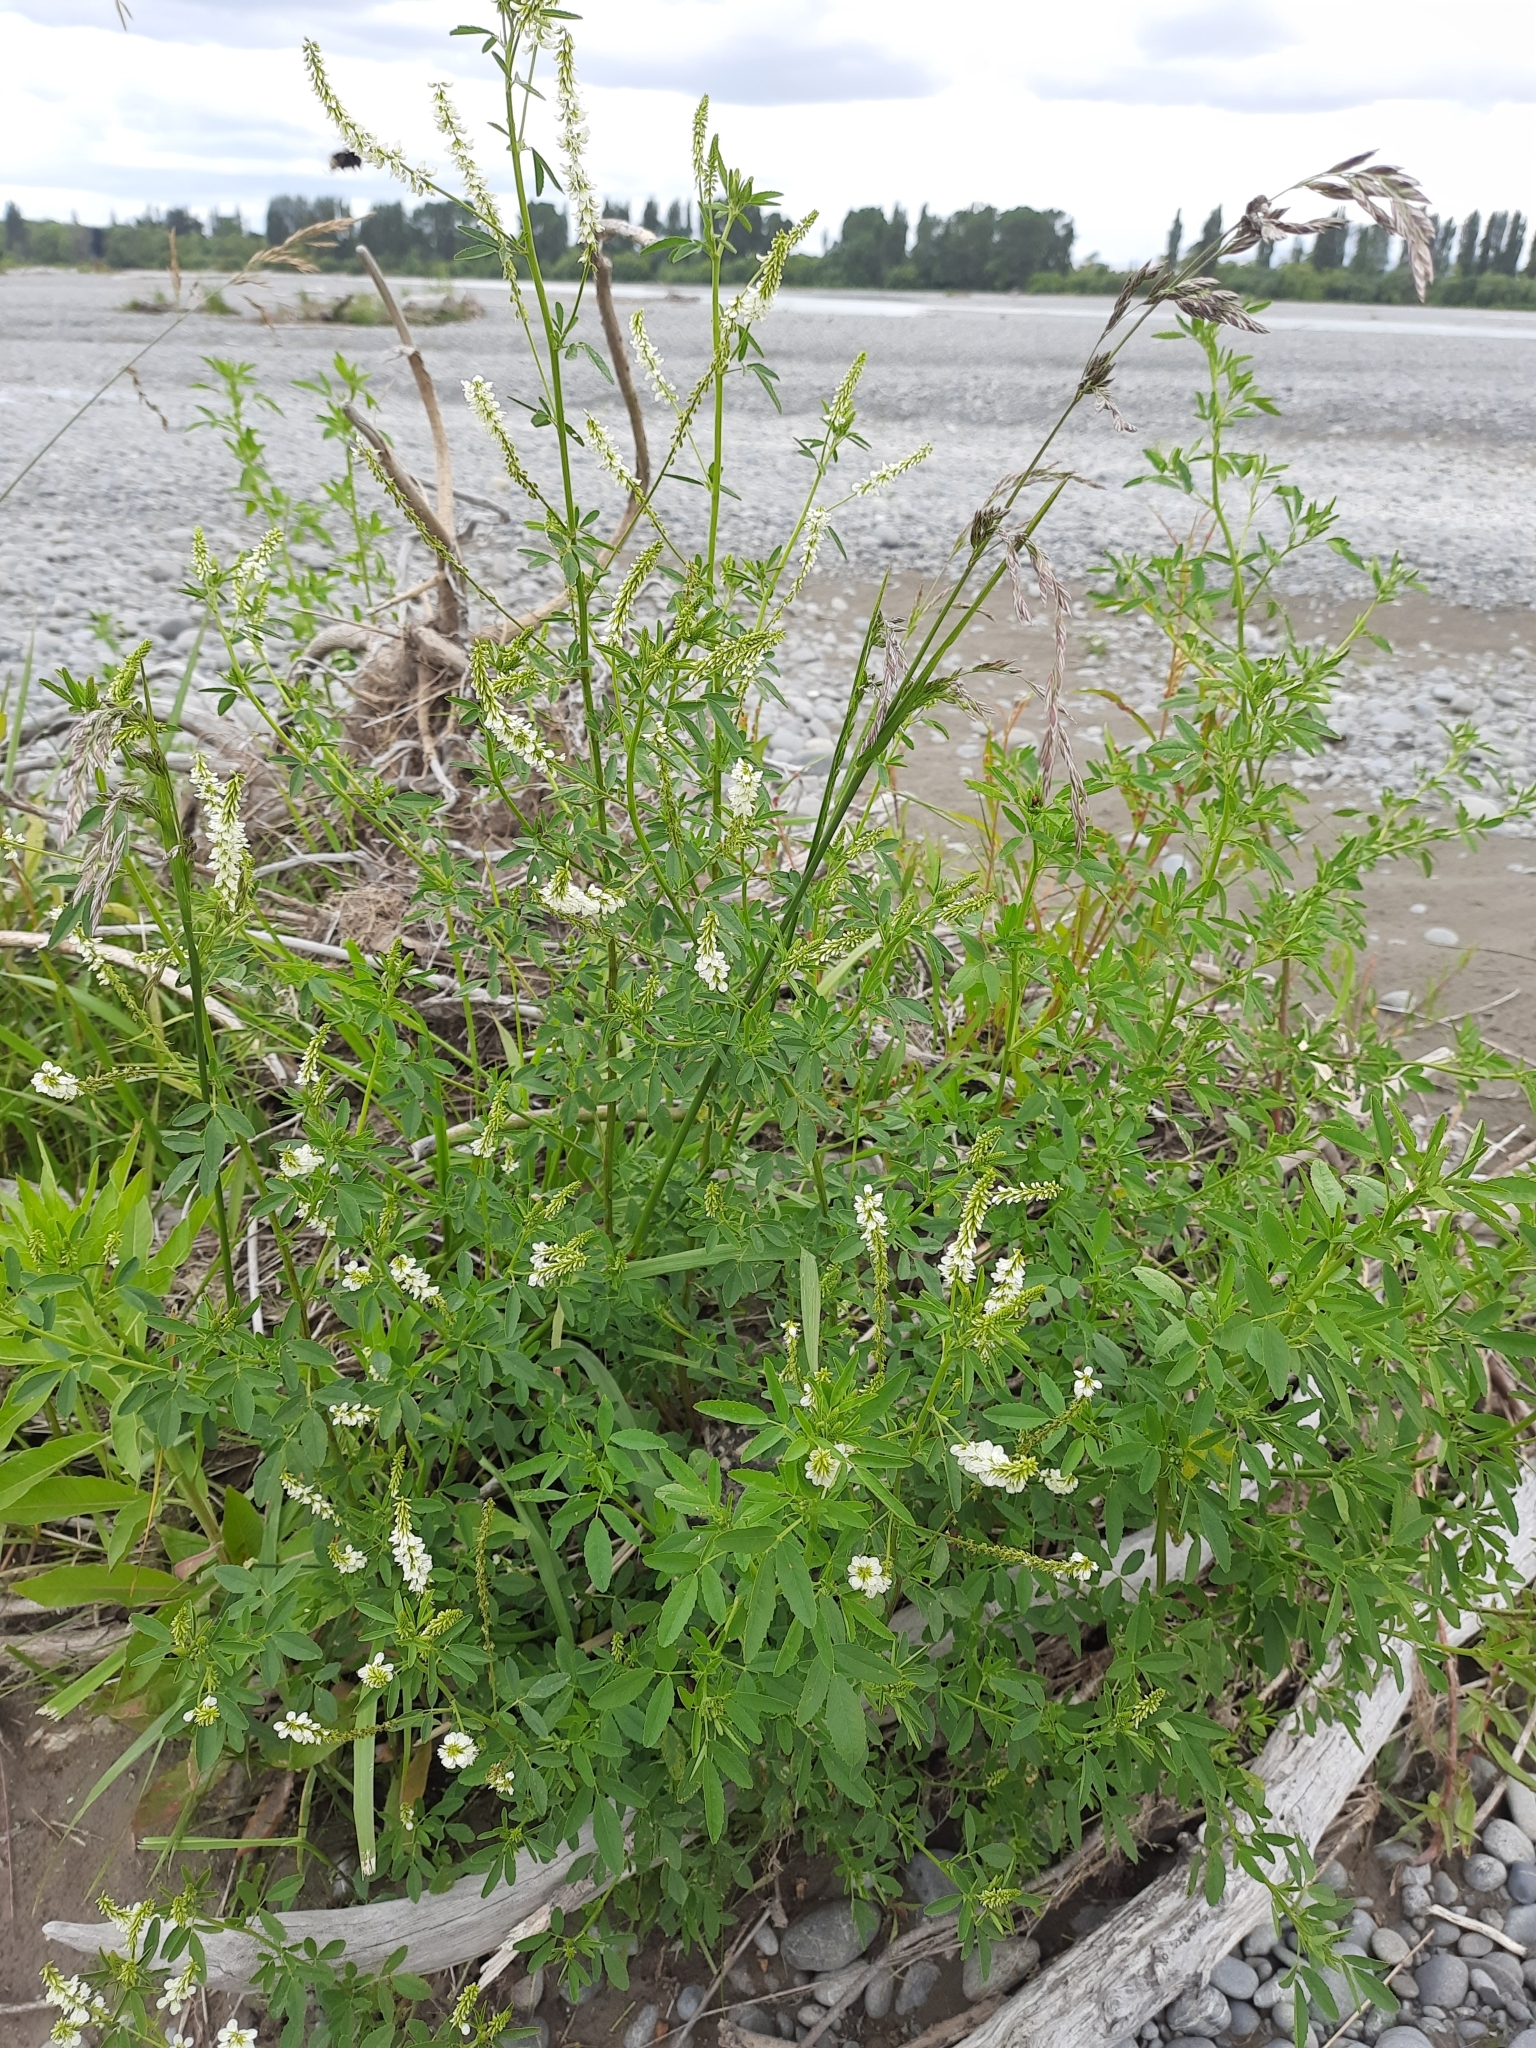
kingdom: Plantae
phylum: Tracheophyta
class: Magnoliopsida
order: Fabales
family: Fabaceae
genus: Melilotus
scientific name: Melilotus albus
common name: White melilot
